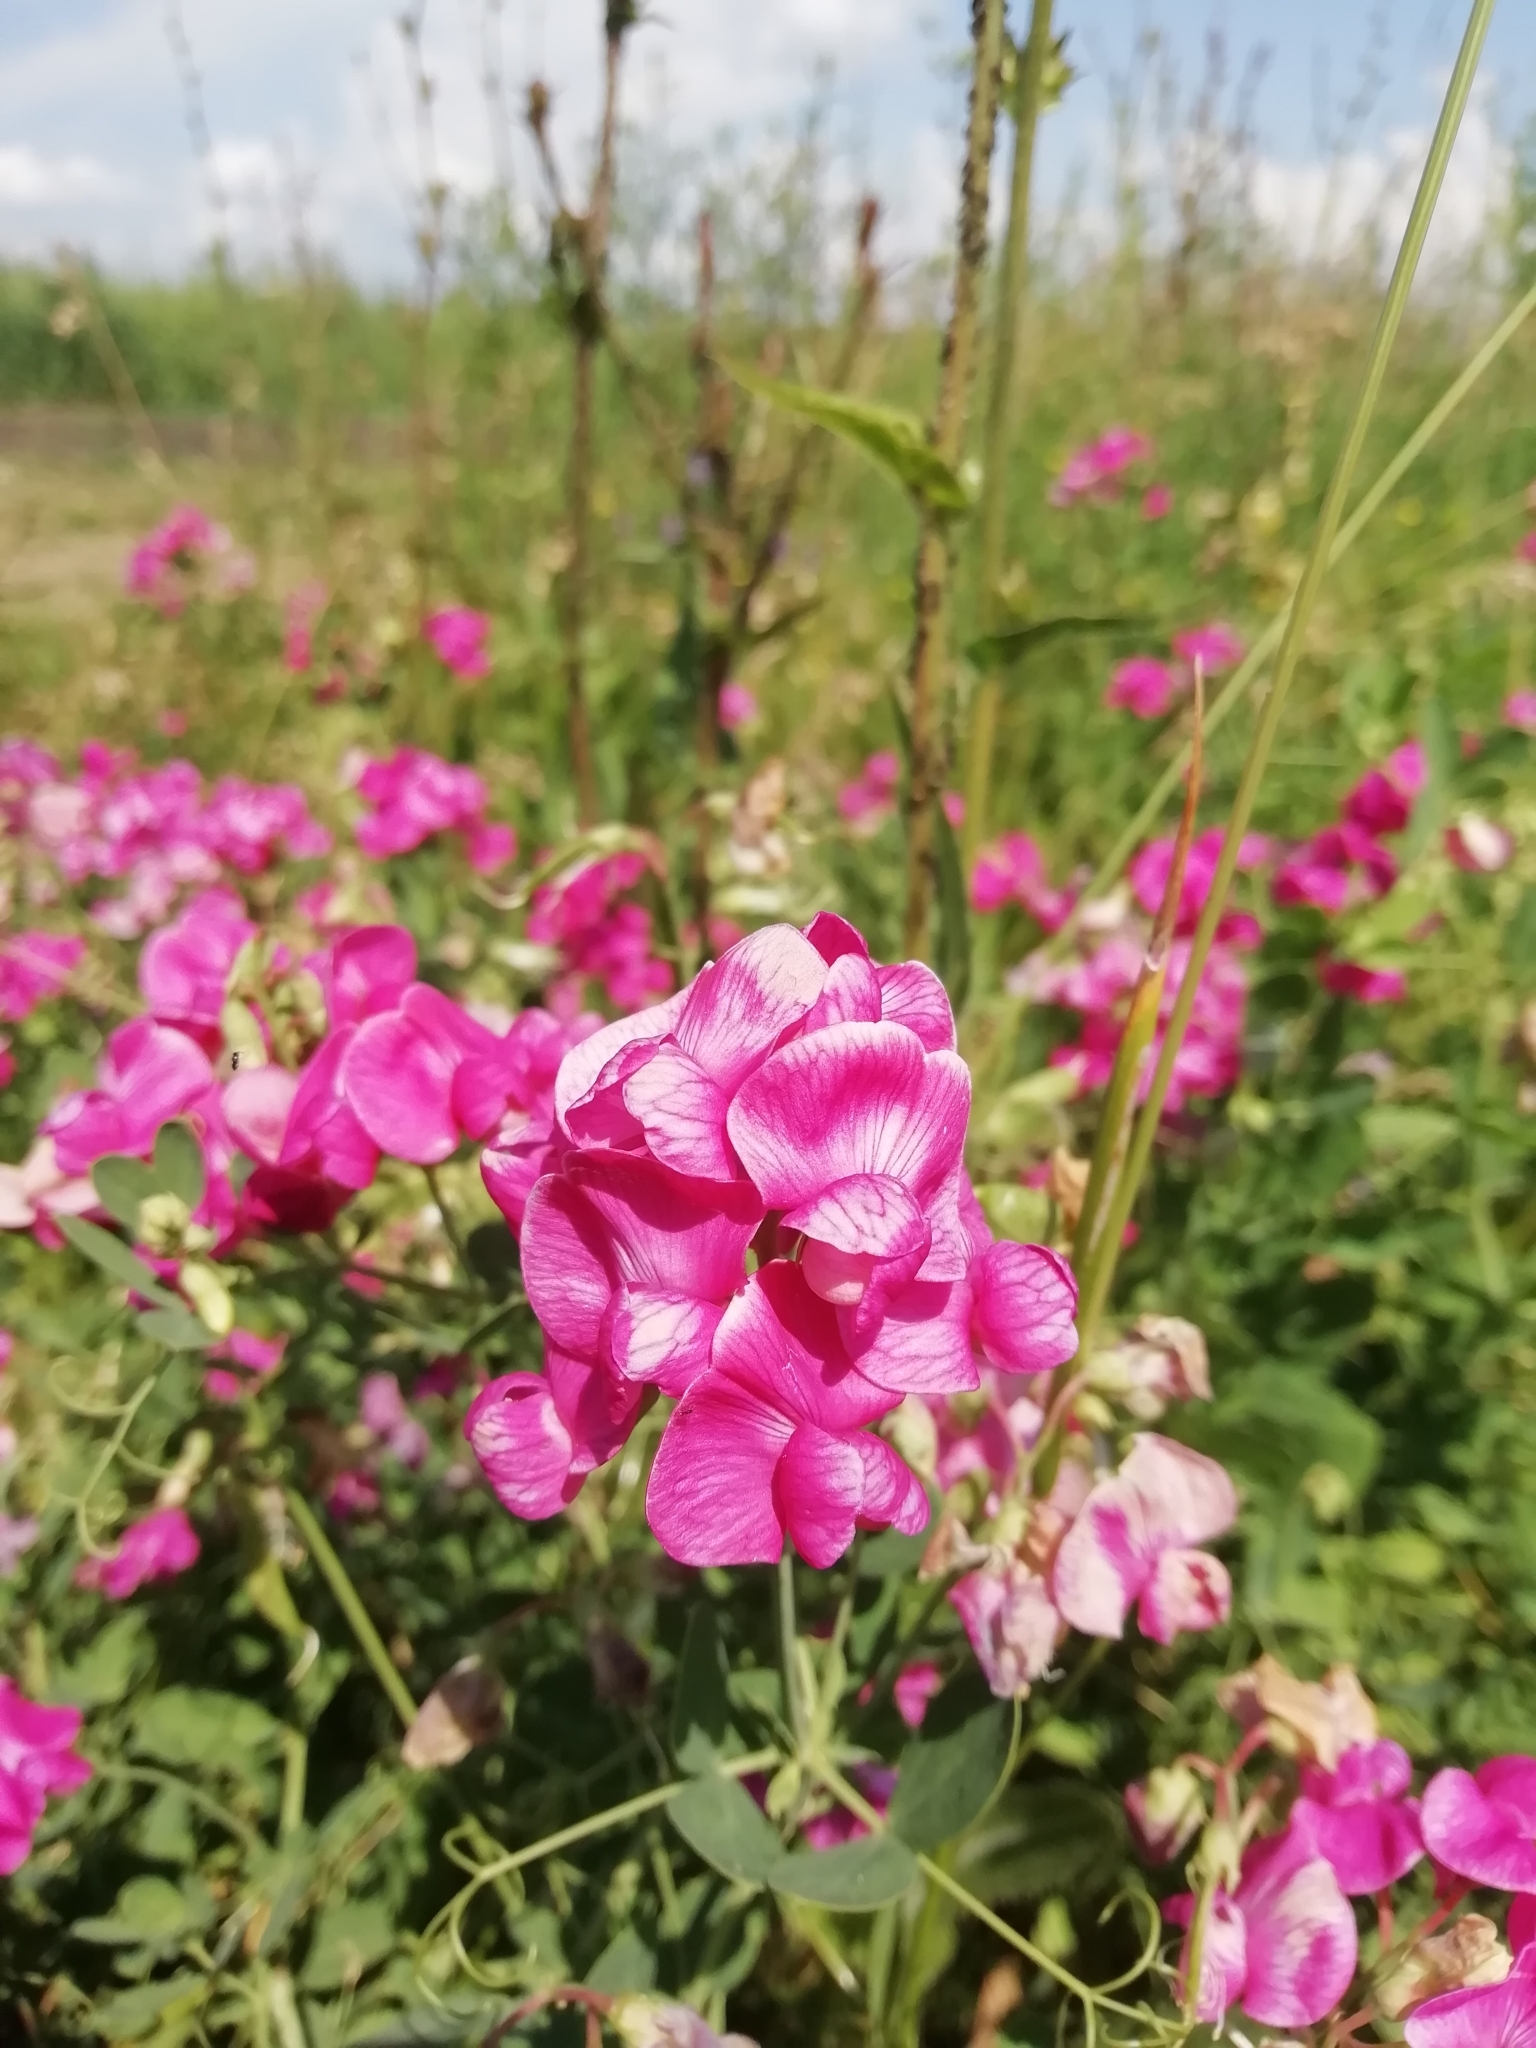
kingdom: Plantae
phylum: Tracheophyta
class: Magnoliopsida
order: Fabales
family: Fabaceae
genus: Lathyrus
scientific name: Lathyrus tuberosus
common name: Tuberous pea
